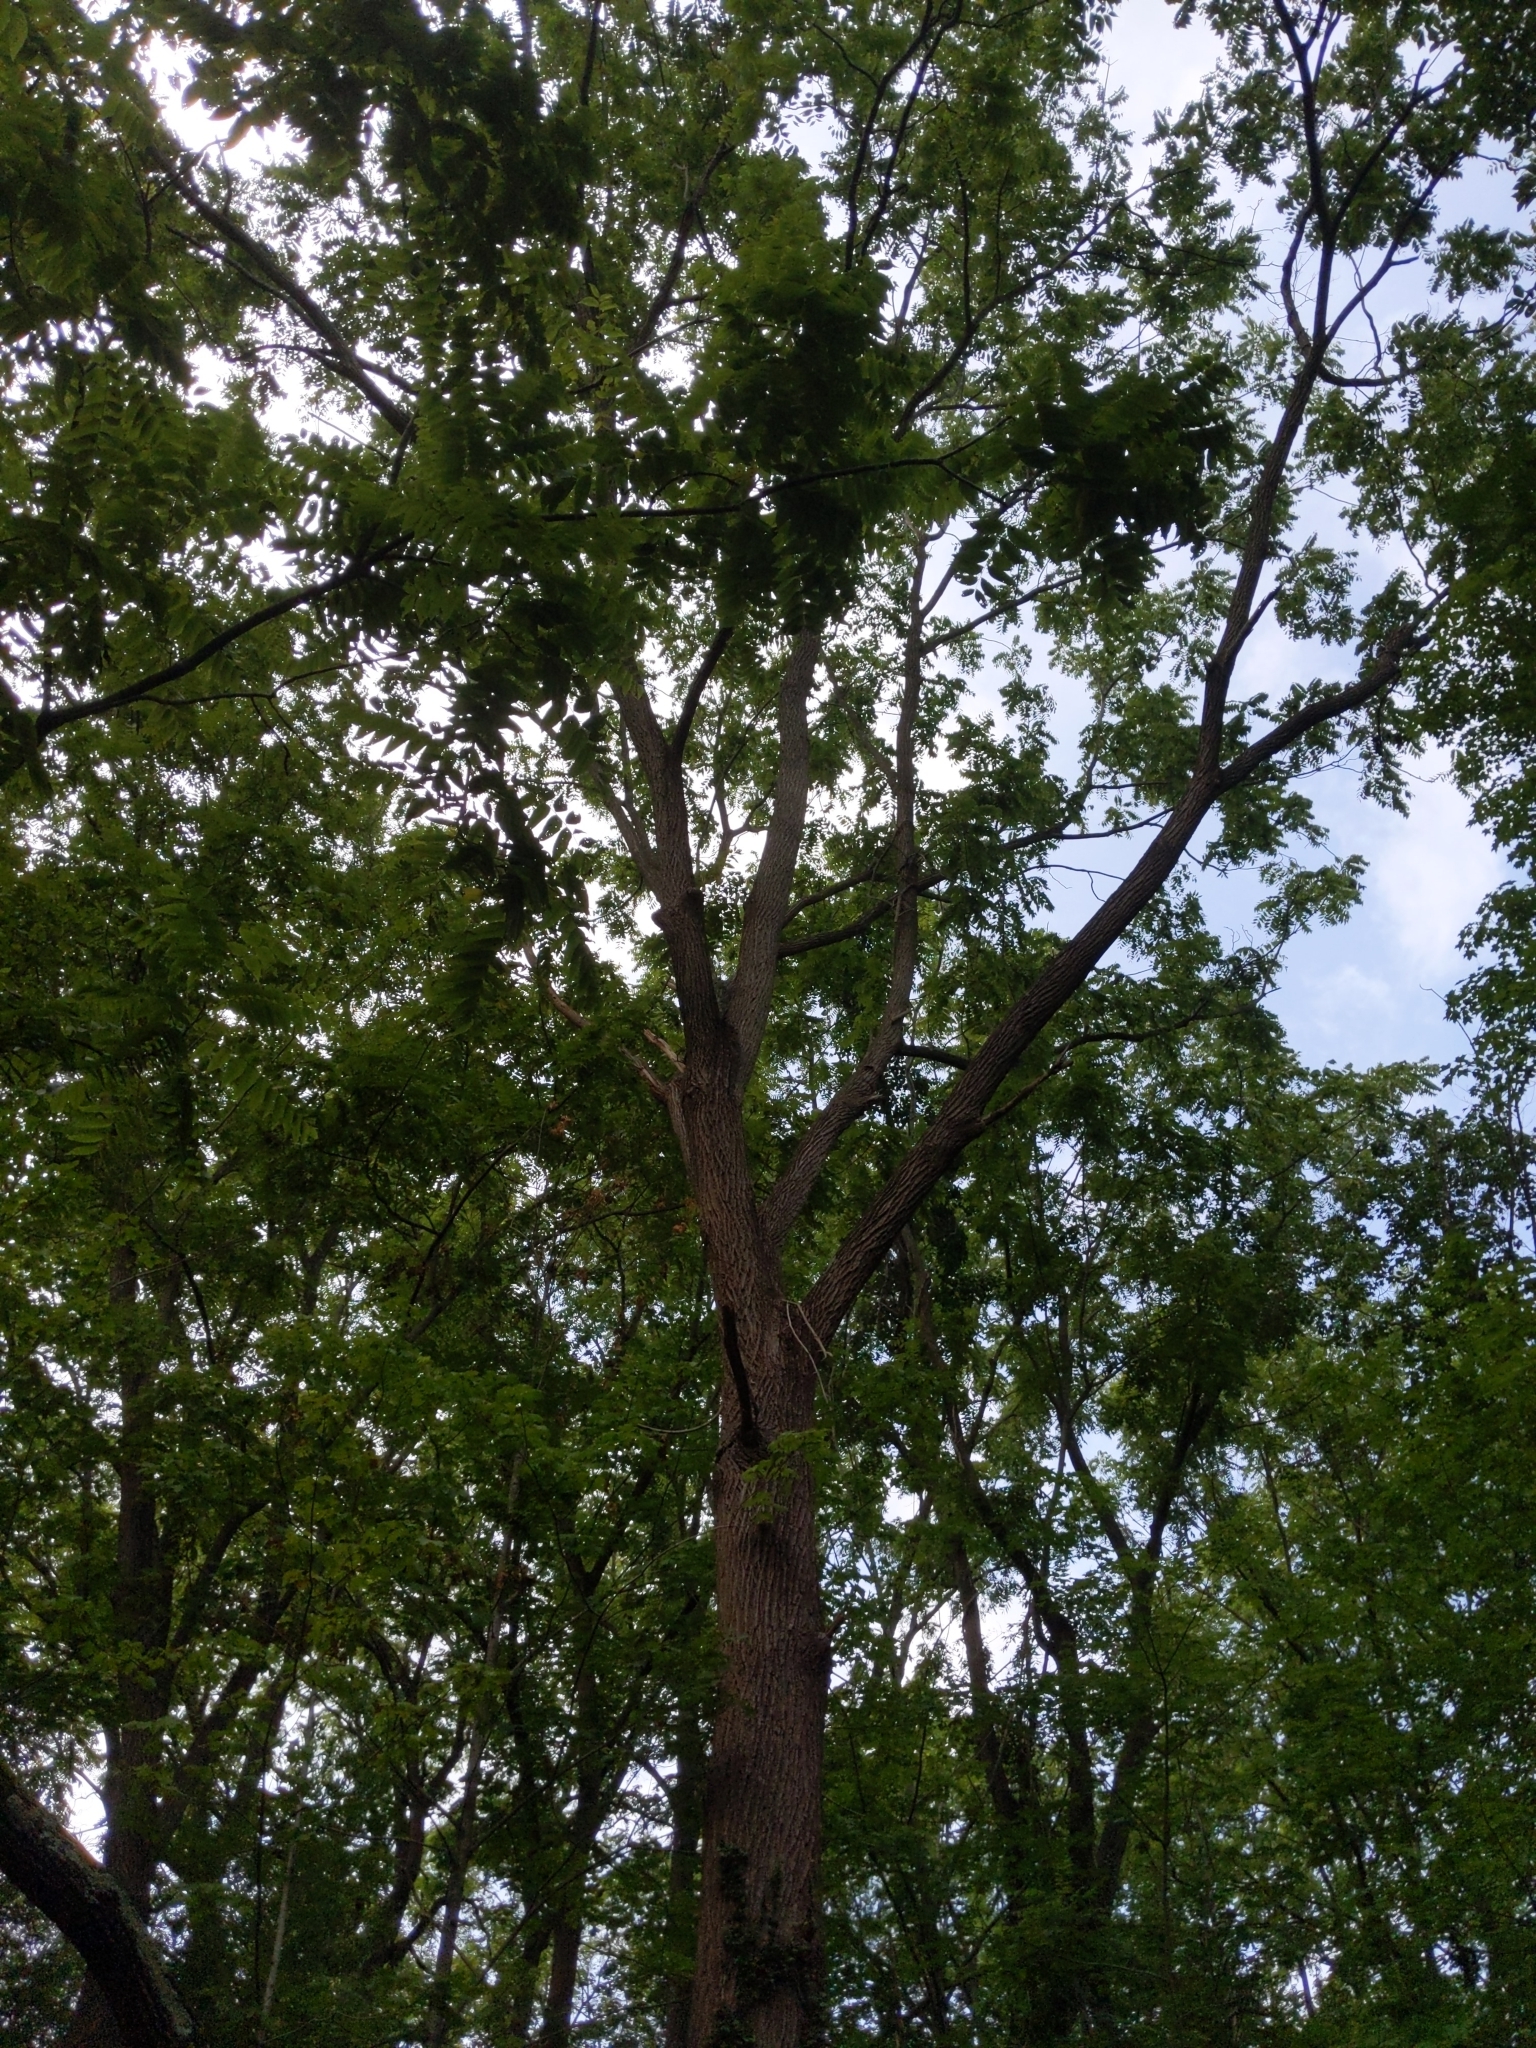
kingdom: Plantae
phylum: Tracheophyta
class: Magnoliopsida
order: Fagales
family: Juglandaceae
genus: Juglans
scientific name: Juglans nigra
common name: Black walnut
